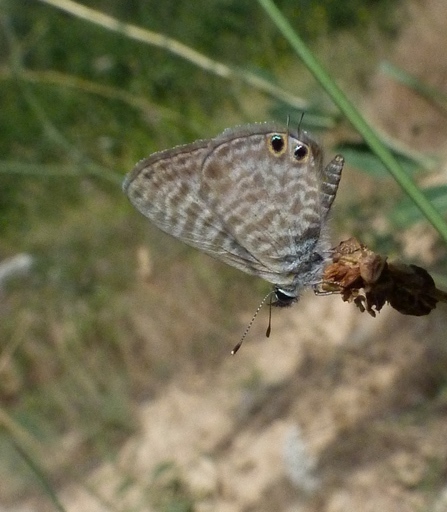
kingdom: Animalia
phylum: Arthropoda
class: Insecta
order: Lepidoptera
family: Lycaenidae
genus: Leptotes
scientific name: Leptotes pirithous
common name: Lang's short-tailed blue
